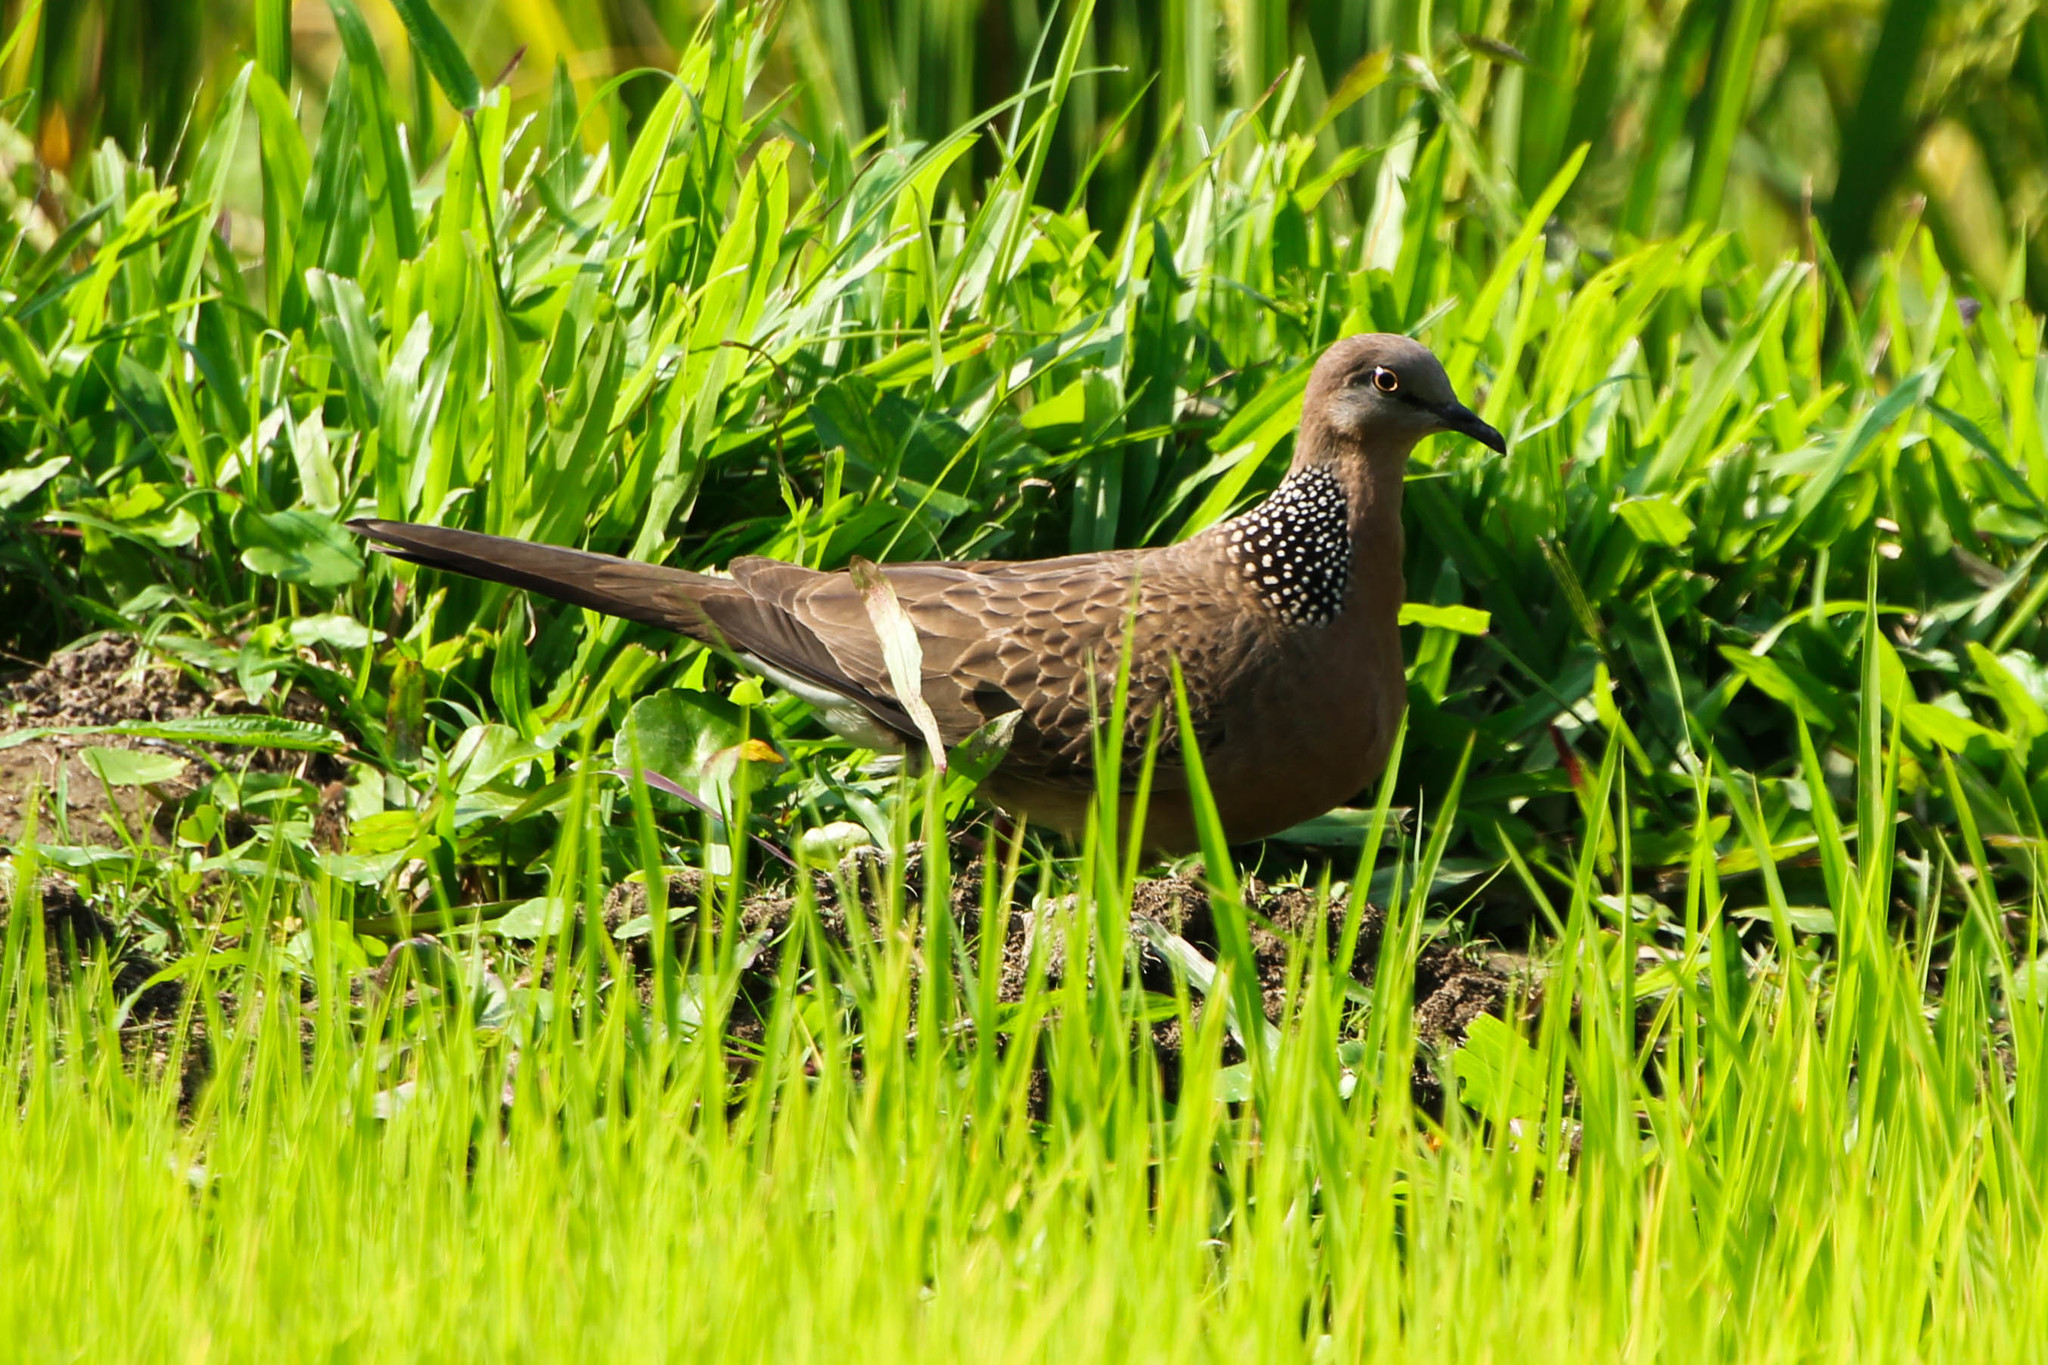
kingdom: Animalia
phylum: Chordata
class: Aves
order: Columbiformes
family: Columbidae
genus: Spilopelia
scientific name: Spilopelia chinensis
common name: Spotted dove
